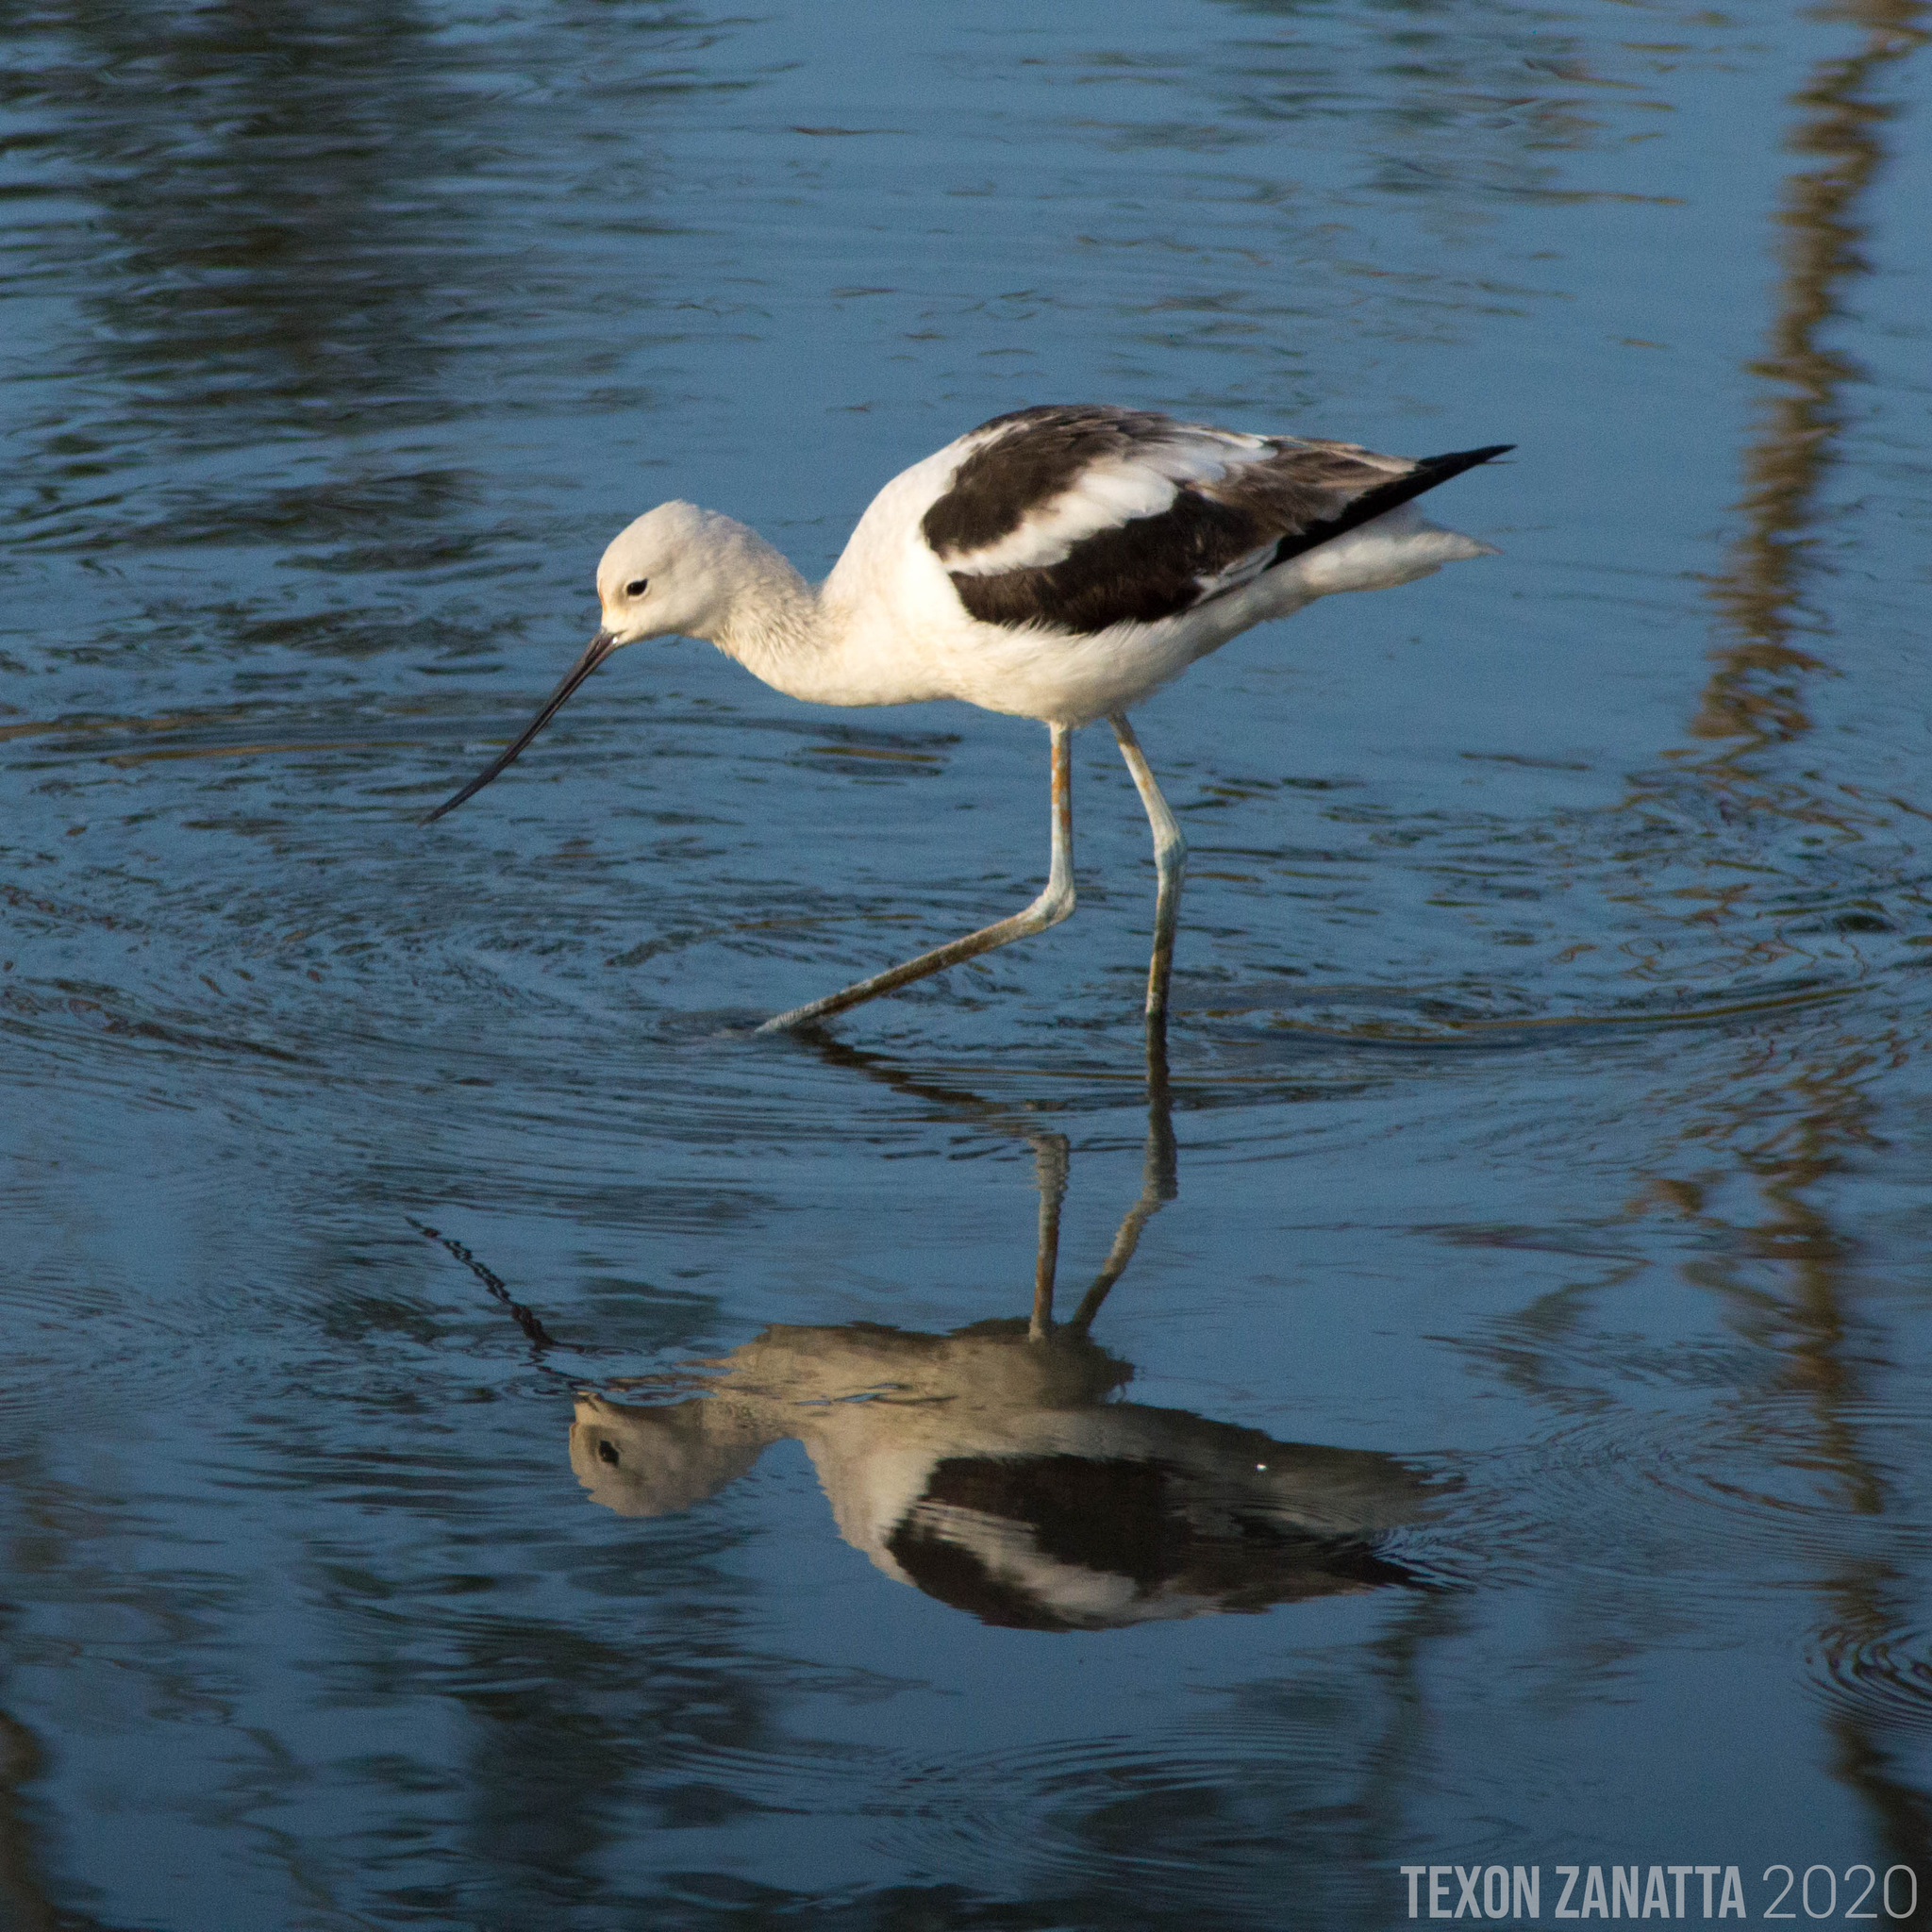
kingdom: Animalia
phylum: Chordata
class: Aves
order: Charadriiformes
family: Recurvirostridae
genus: Recurvirostra
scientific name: Recurvirostra americana
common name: American avocet
